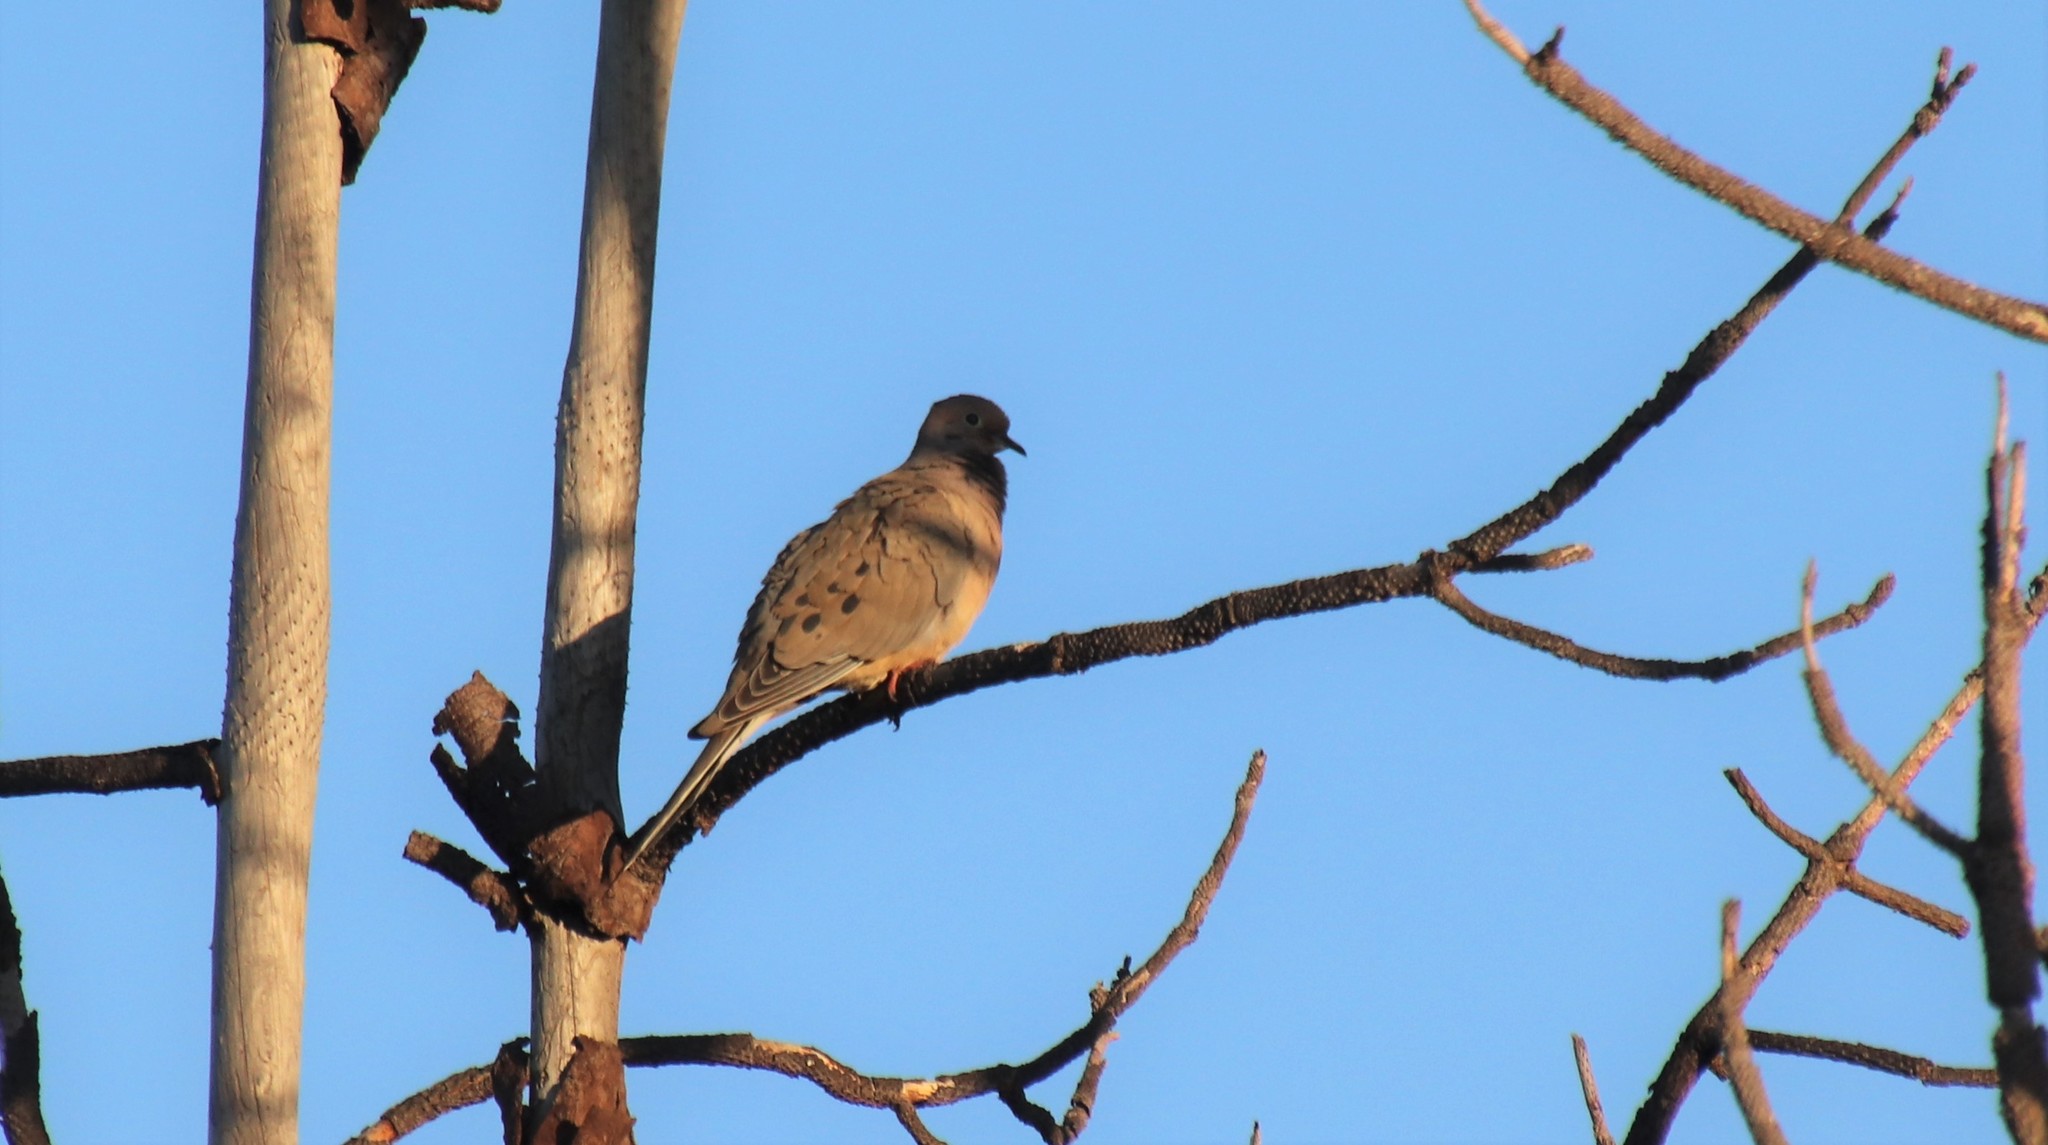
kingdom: Animalia
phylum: Chordata
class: Aves
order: Columbiformes
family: Columbidae
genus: Zenaida
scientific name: Zenaida macroura
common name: Mourning dove
